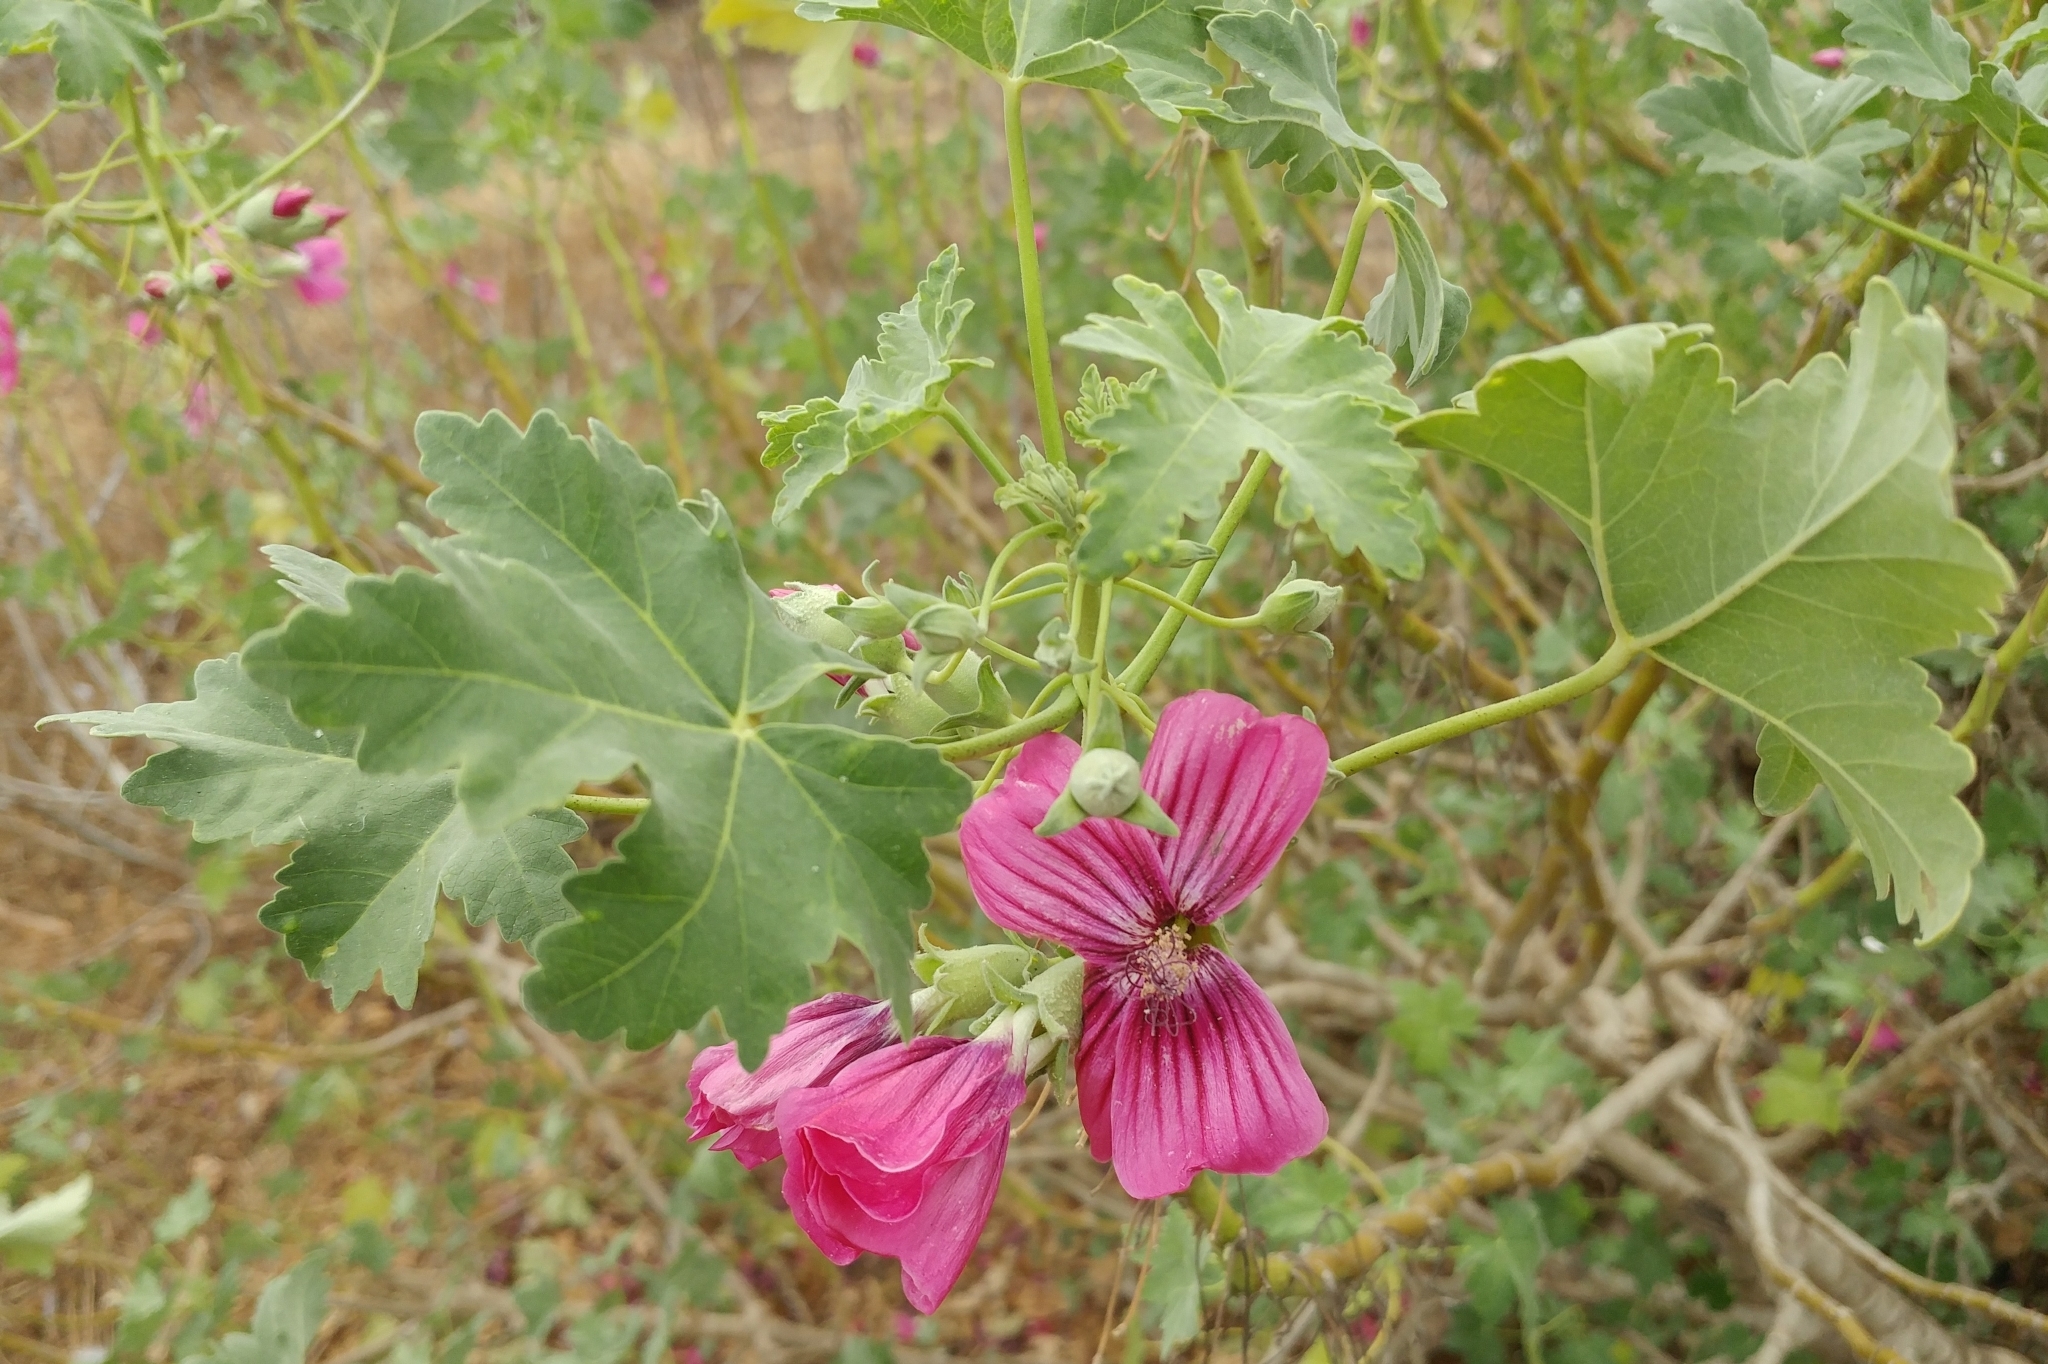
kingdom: Plantae
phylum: Tracheophyta
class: Magnoliopsida
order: Malvales
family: Malvaceae
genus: Malva
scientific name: Malva assurgentiflora
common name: Island mallow
